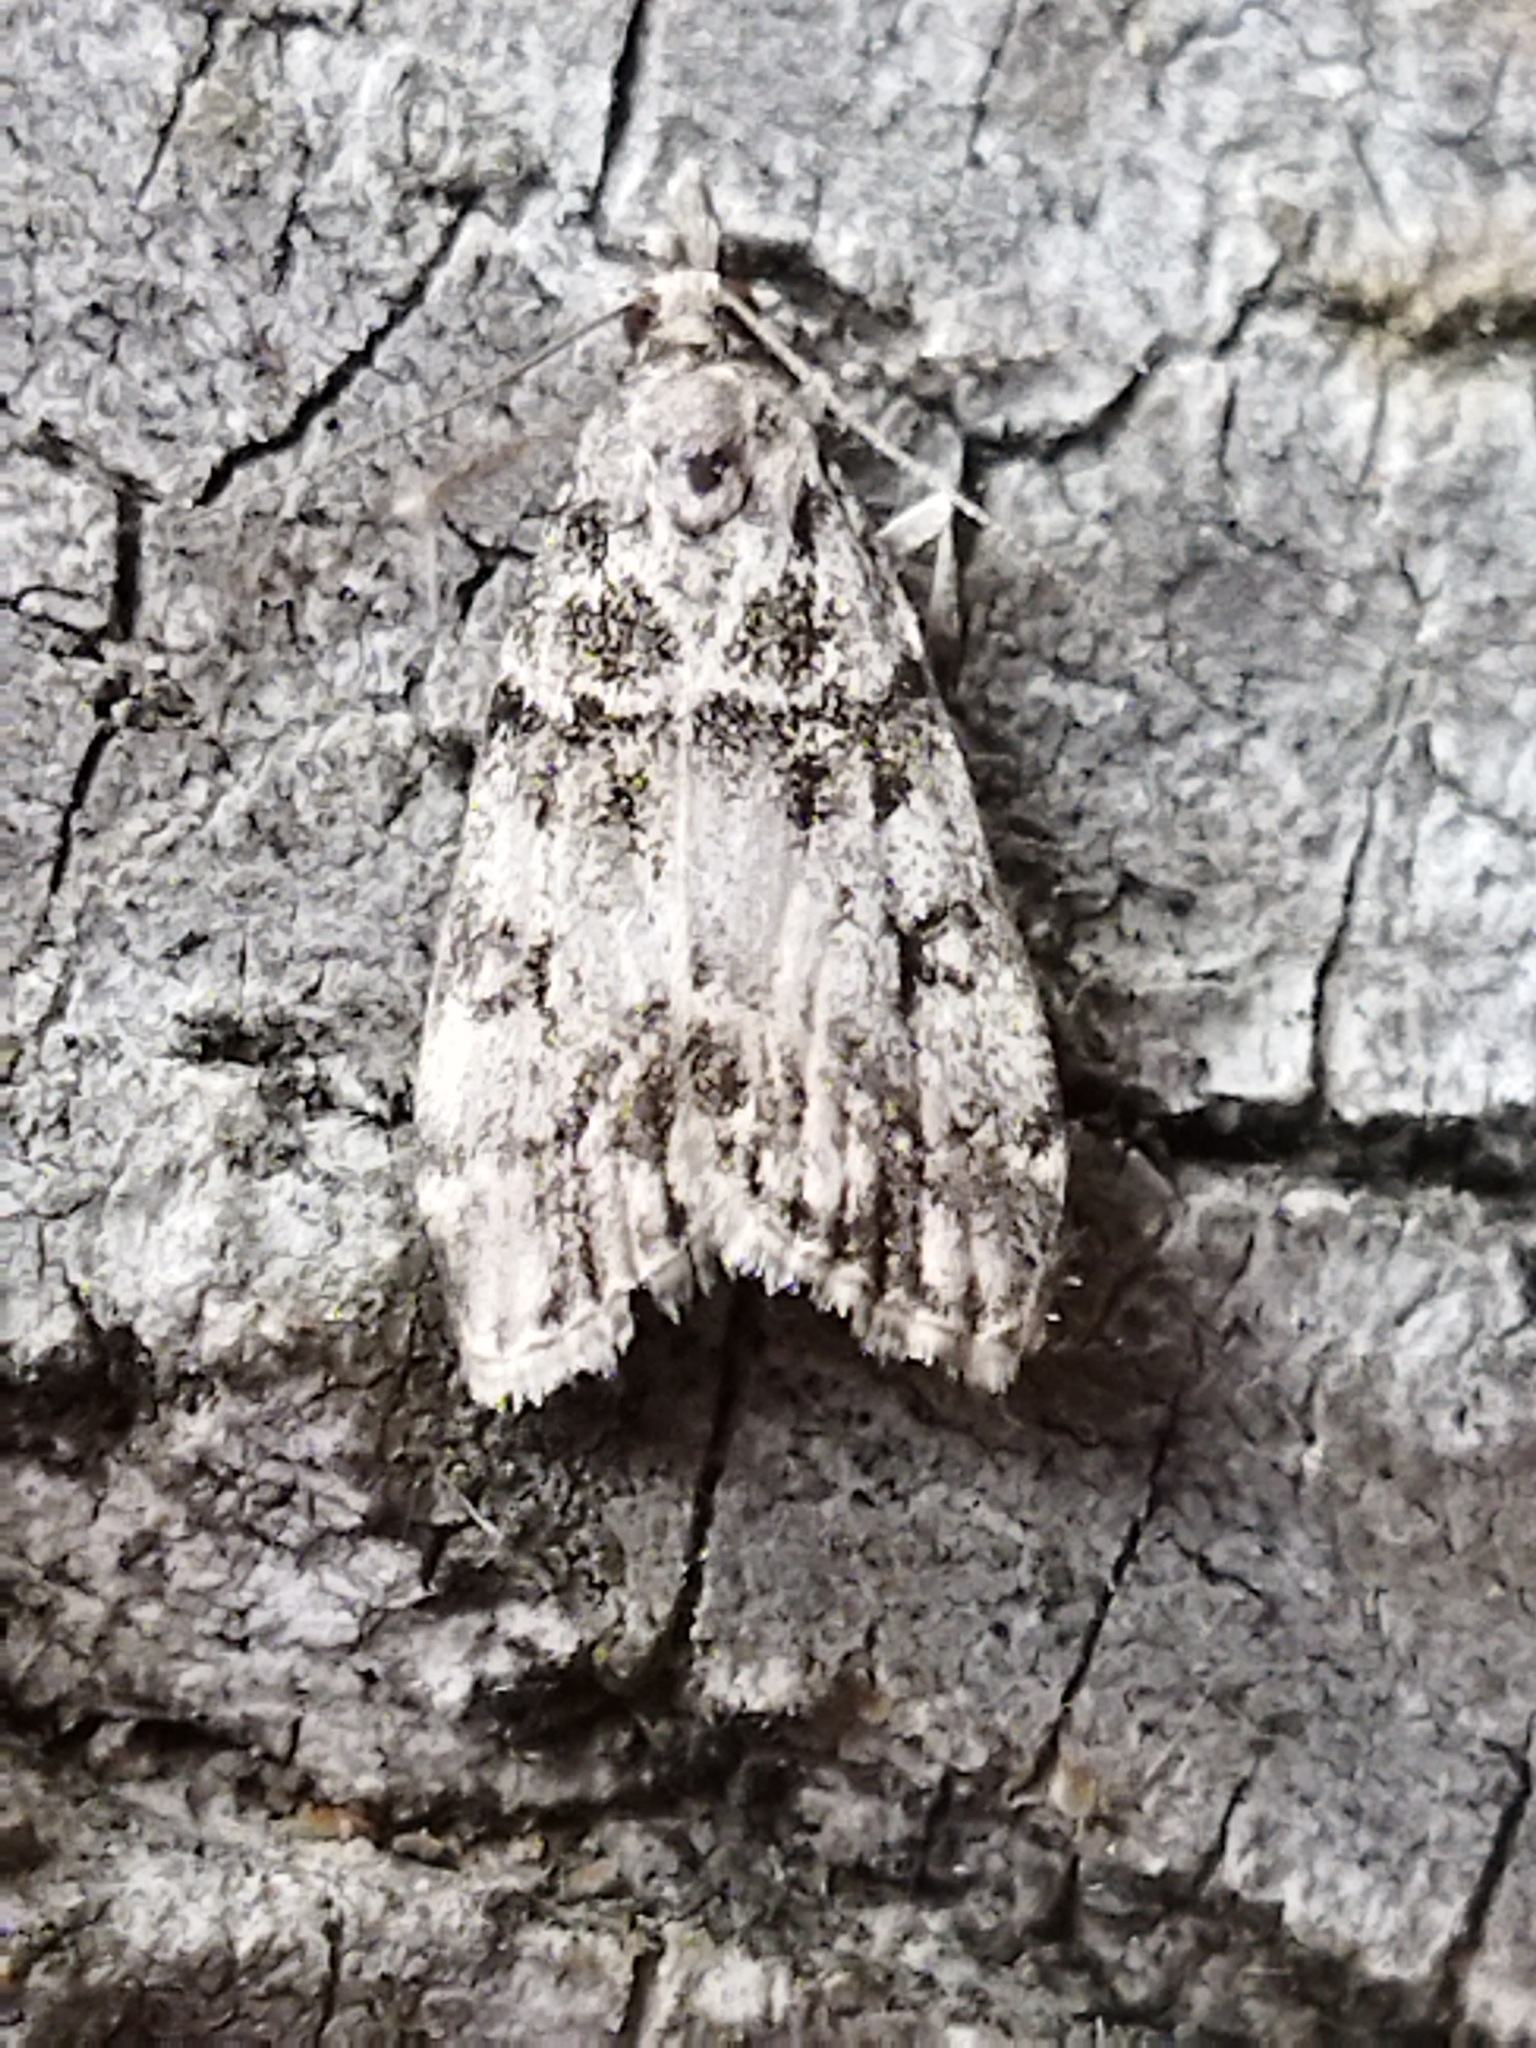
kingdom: Animalia
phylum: Arthropoda
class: Insecta
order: Lepidoptera
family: Crambidae
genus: Eudonia
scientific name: Eudonia lacustrata
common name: Little grey
